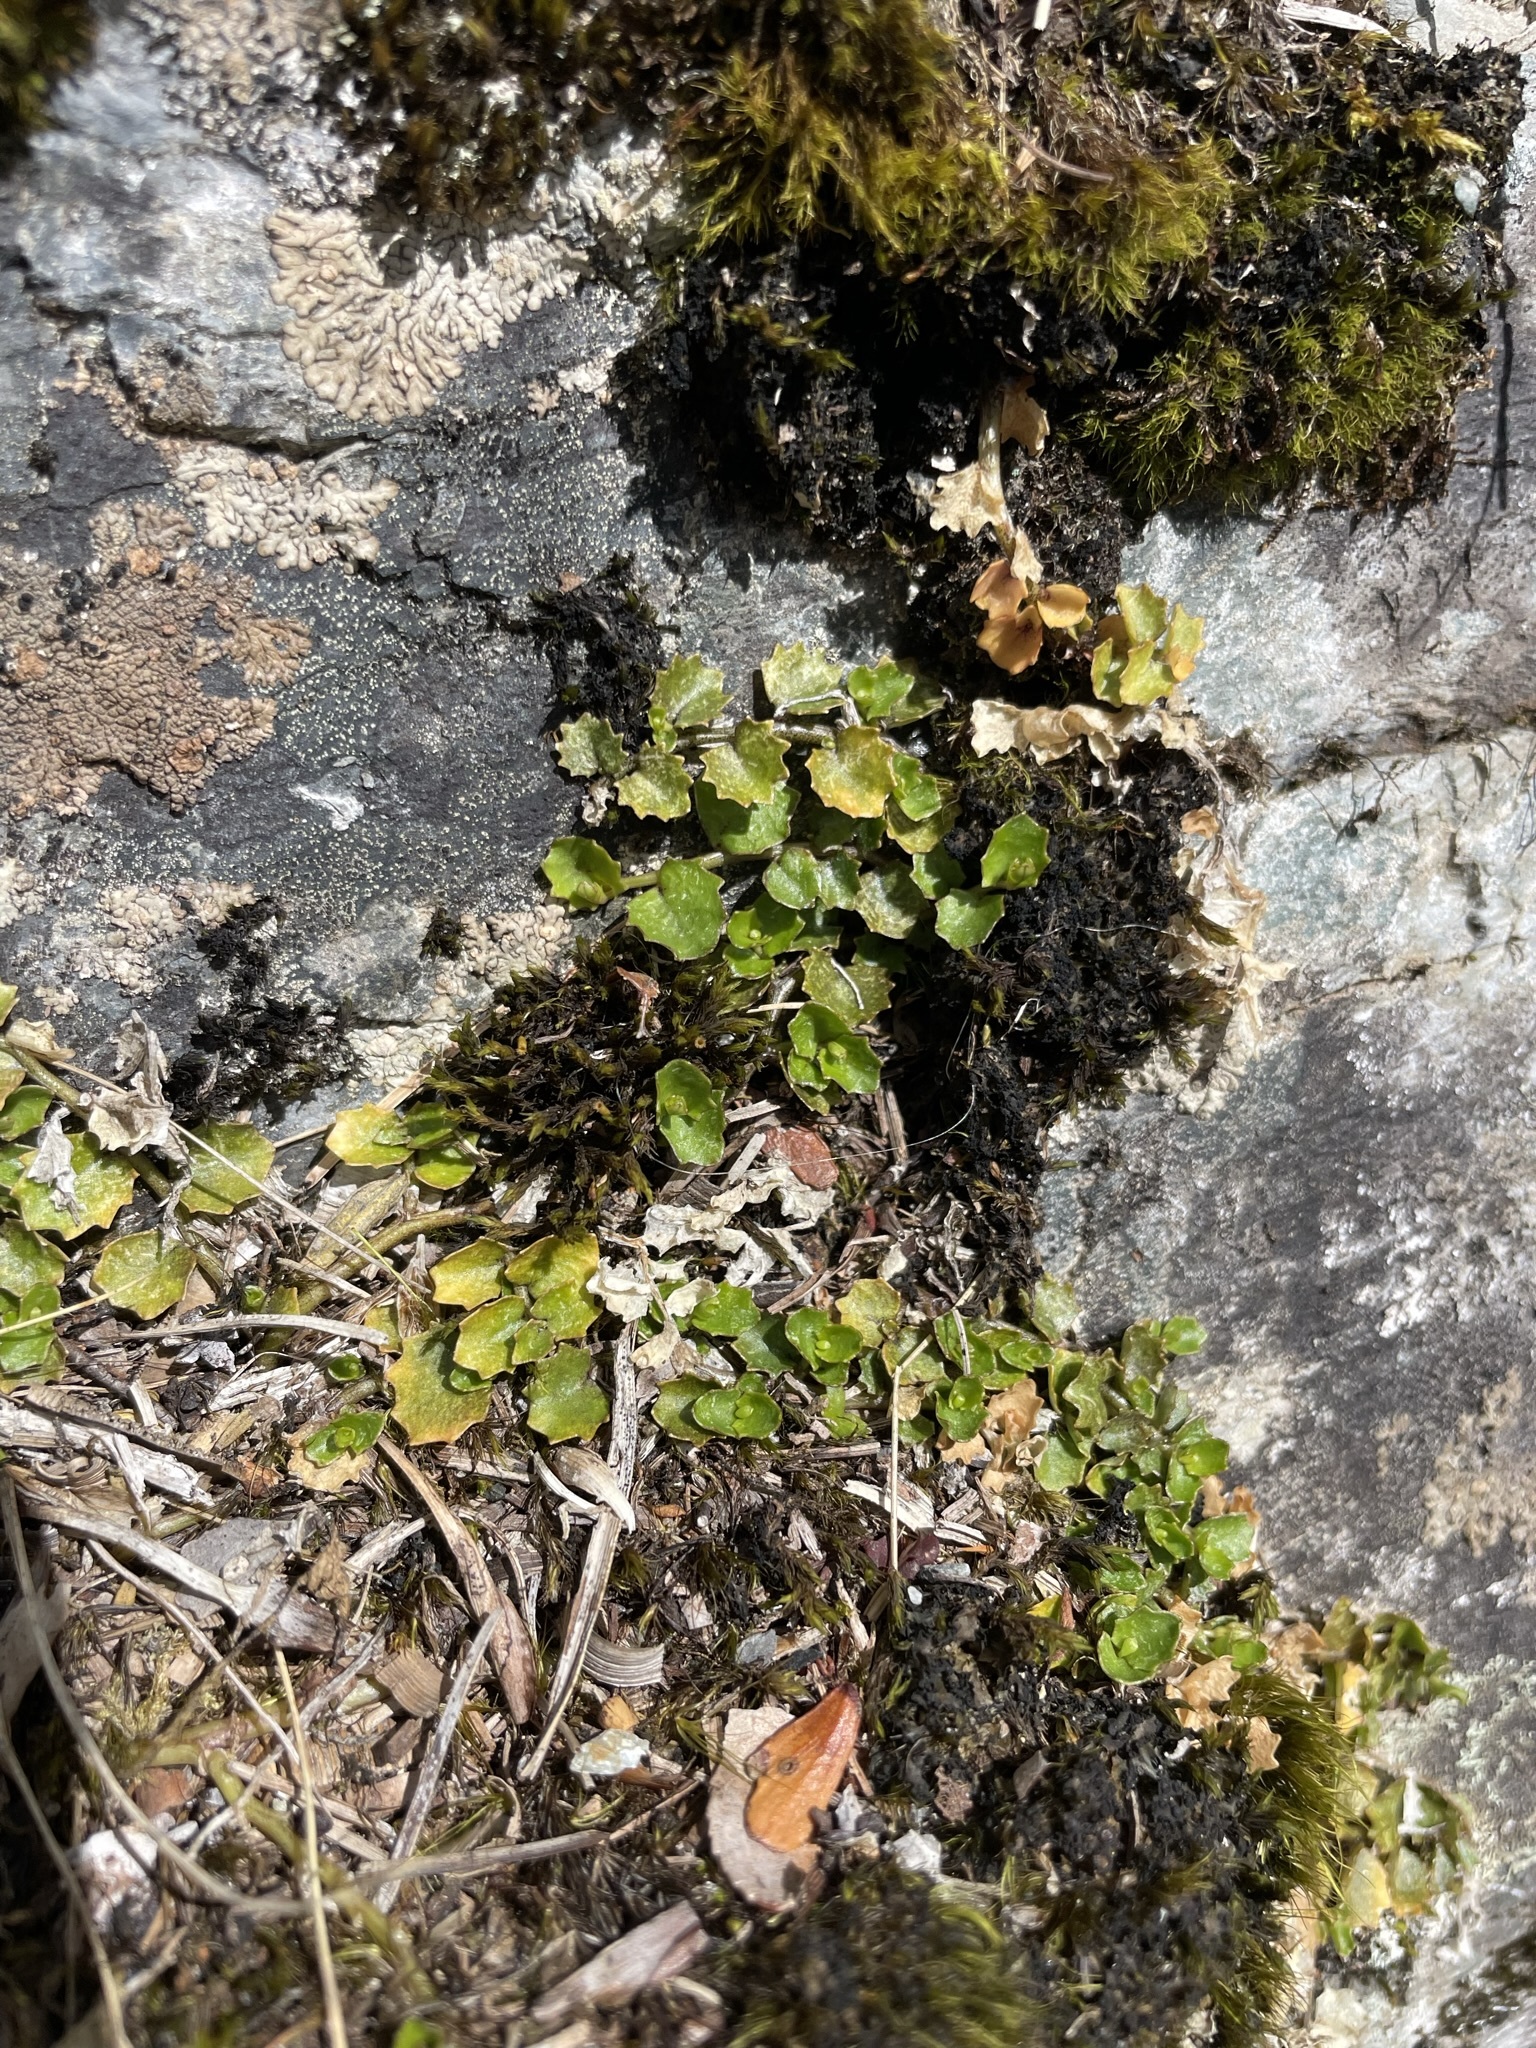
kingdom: Plantae
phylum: Tracheophyta
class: Magnoliopsida
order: Asterales
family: Campanulaceae
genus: Lobelia
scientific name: Lobelia macrodon
